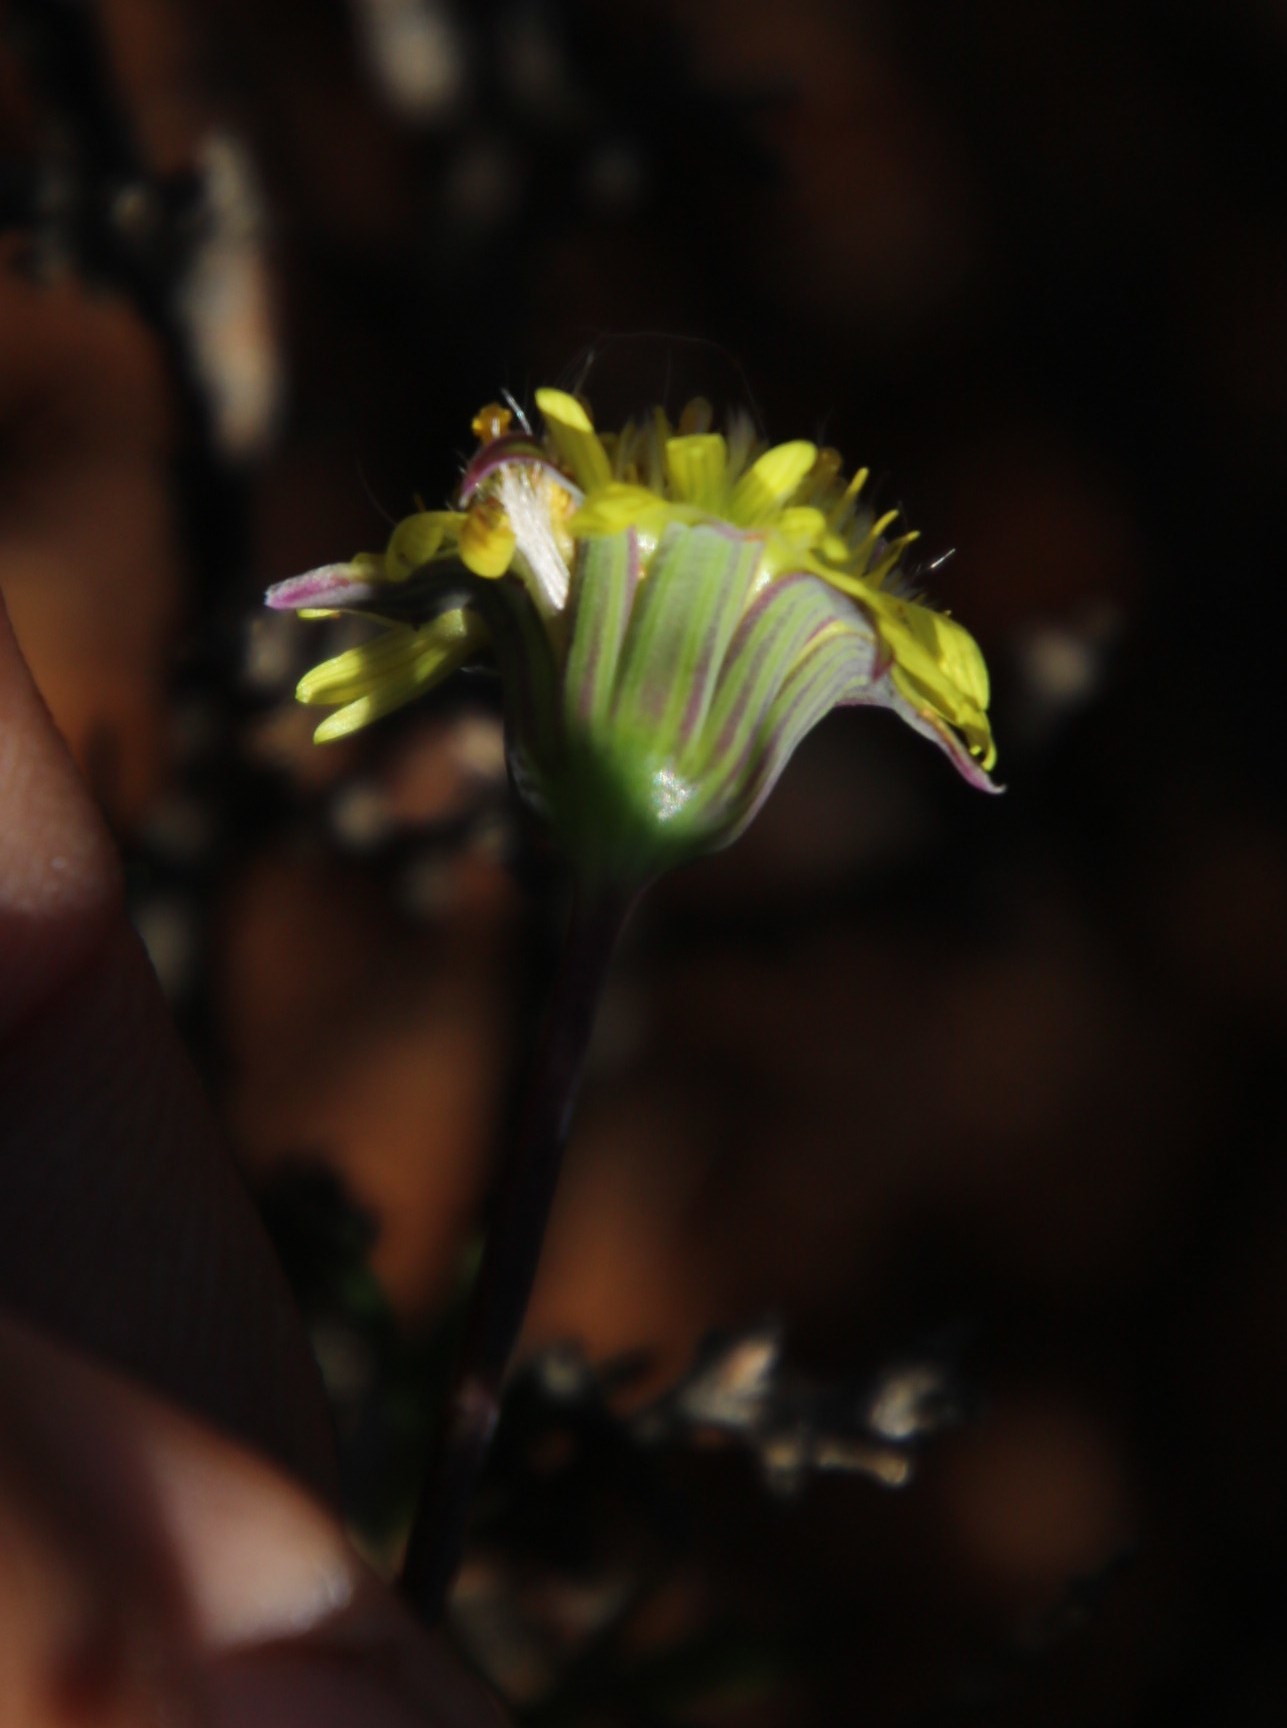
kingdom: Plantae
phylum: Tracheophyta
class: Magnoliopsida
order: Asterales
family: Asteraceae
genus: Crassothonna
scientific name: Crassothonna protecta
